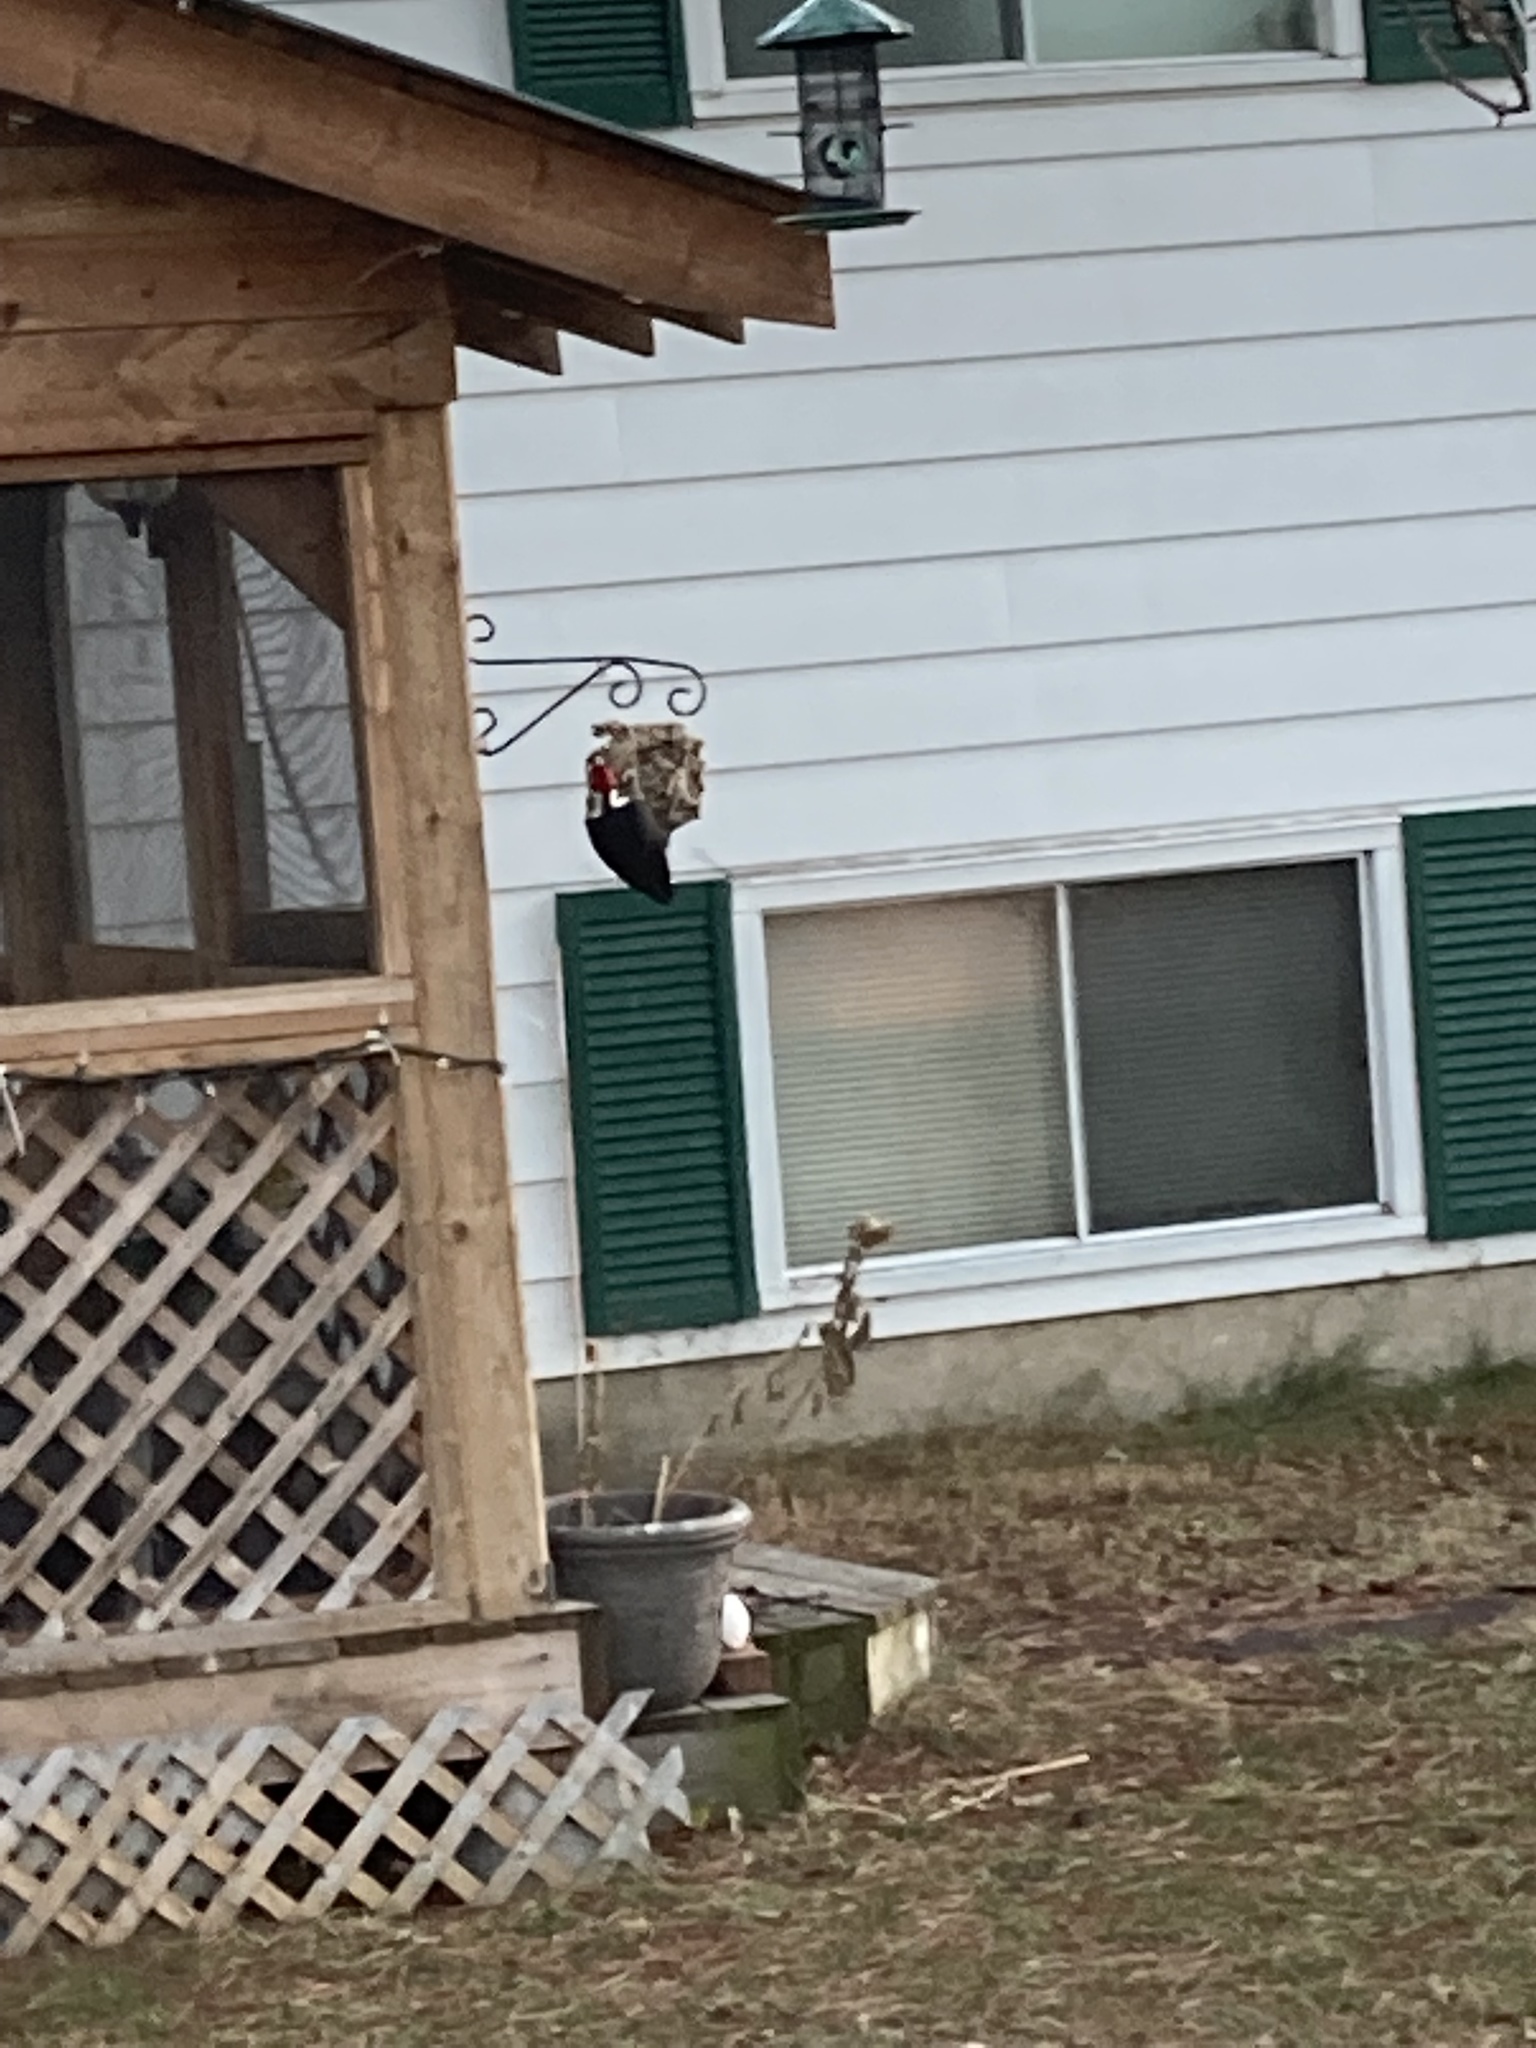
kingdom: Animalia
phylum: Chordata
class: Aves
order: Piciformes
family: Picidae
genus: Dryocopus
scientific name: Dryocopus pileatus
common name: Pileated woodpecker
